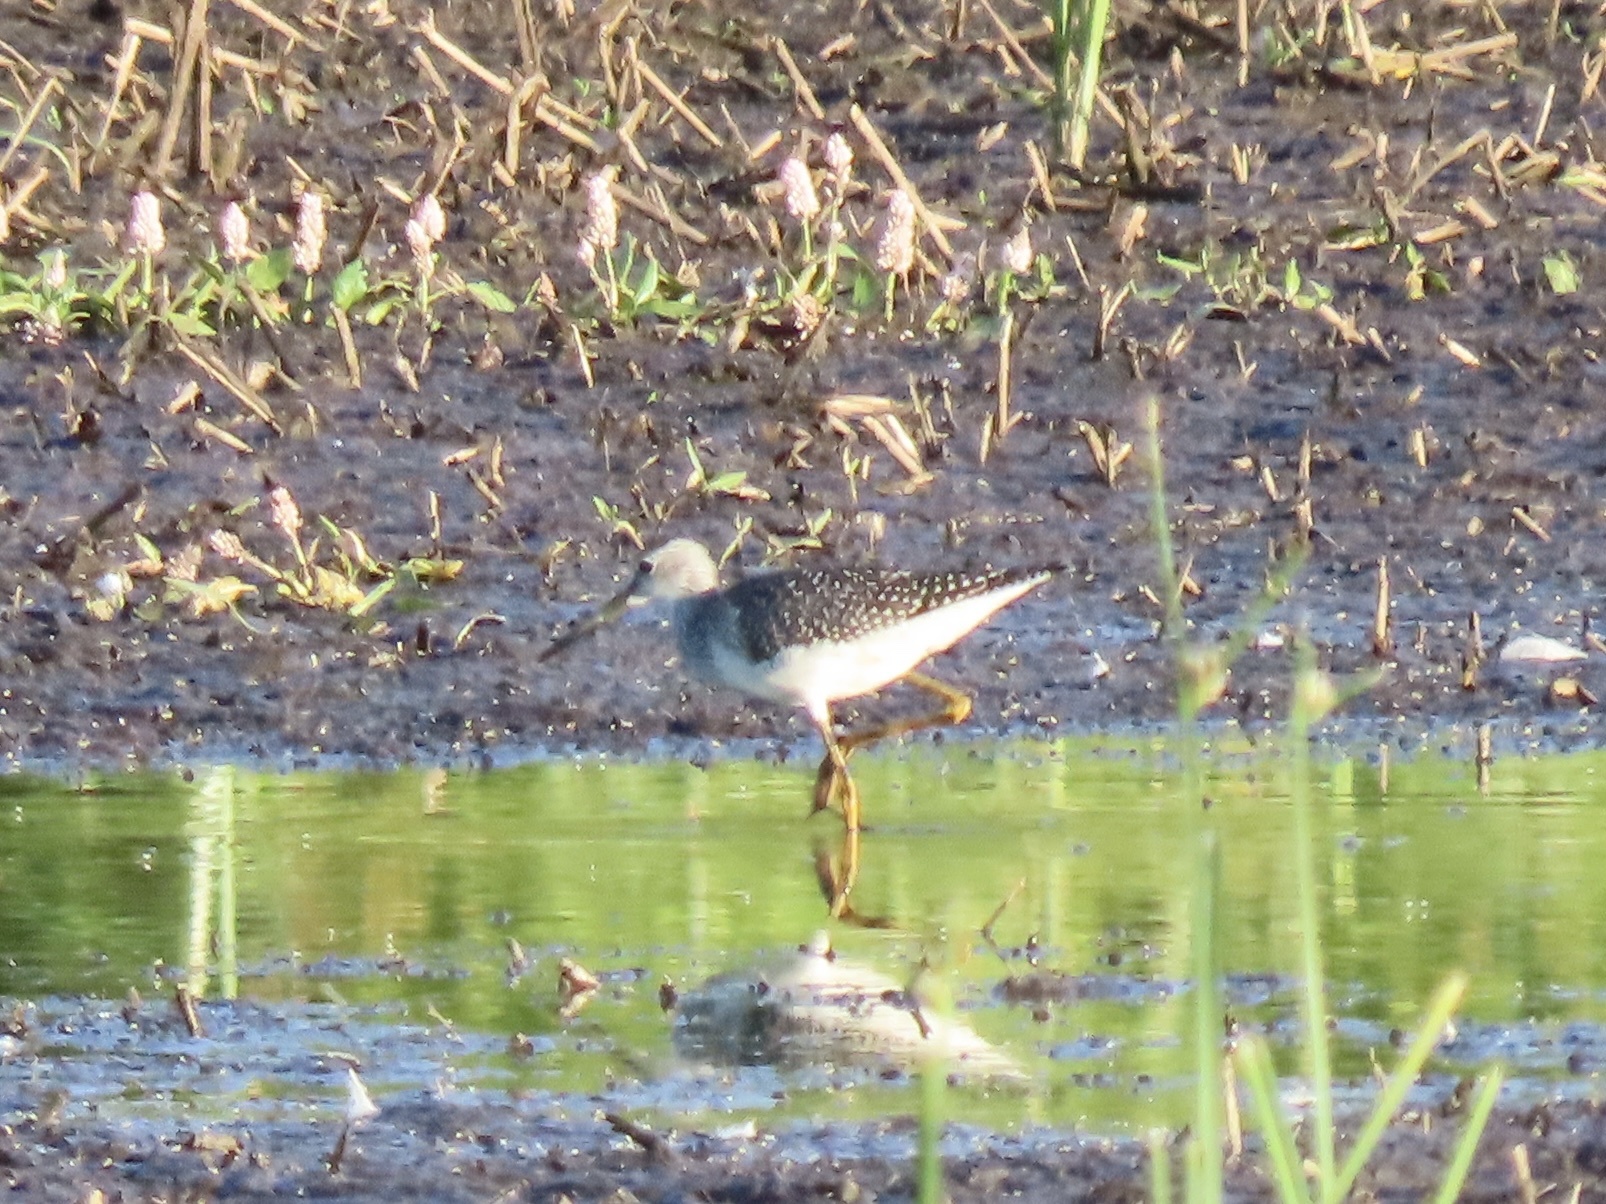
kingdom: Animalia
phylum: Chordata
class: Aves
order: Charadriiformes
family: Scolopacidae
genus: Tringa
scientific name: Tringa melanoleuca
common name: Greater yellowlegs
